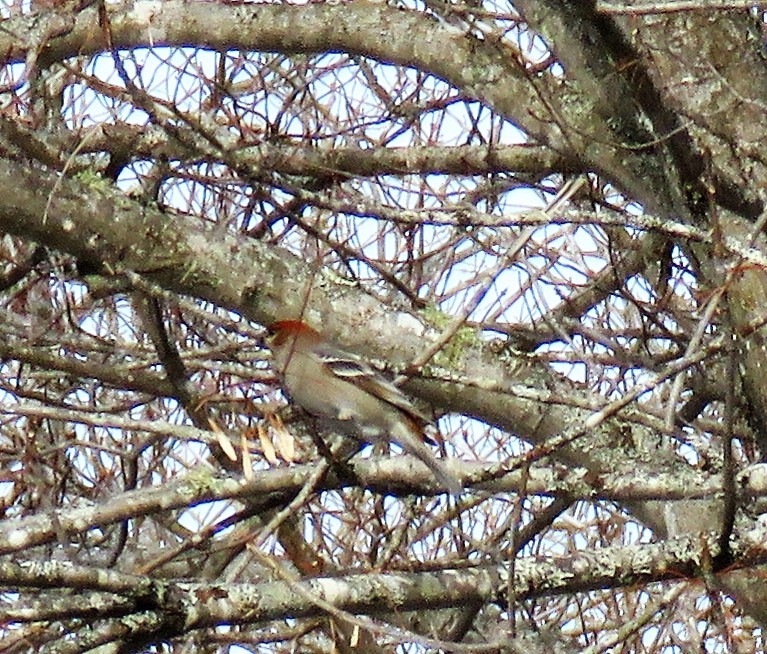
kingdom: Animalia
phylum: Chordata
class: Aves
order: Passeriformes
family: Fringillidae
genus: Pinicola
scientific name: Pinicola enucleator
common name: Pine grosbeak
